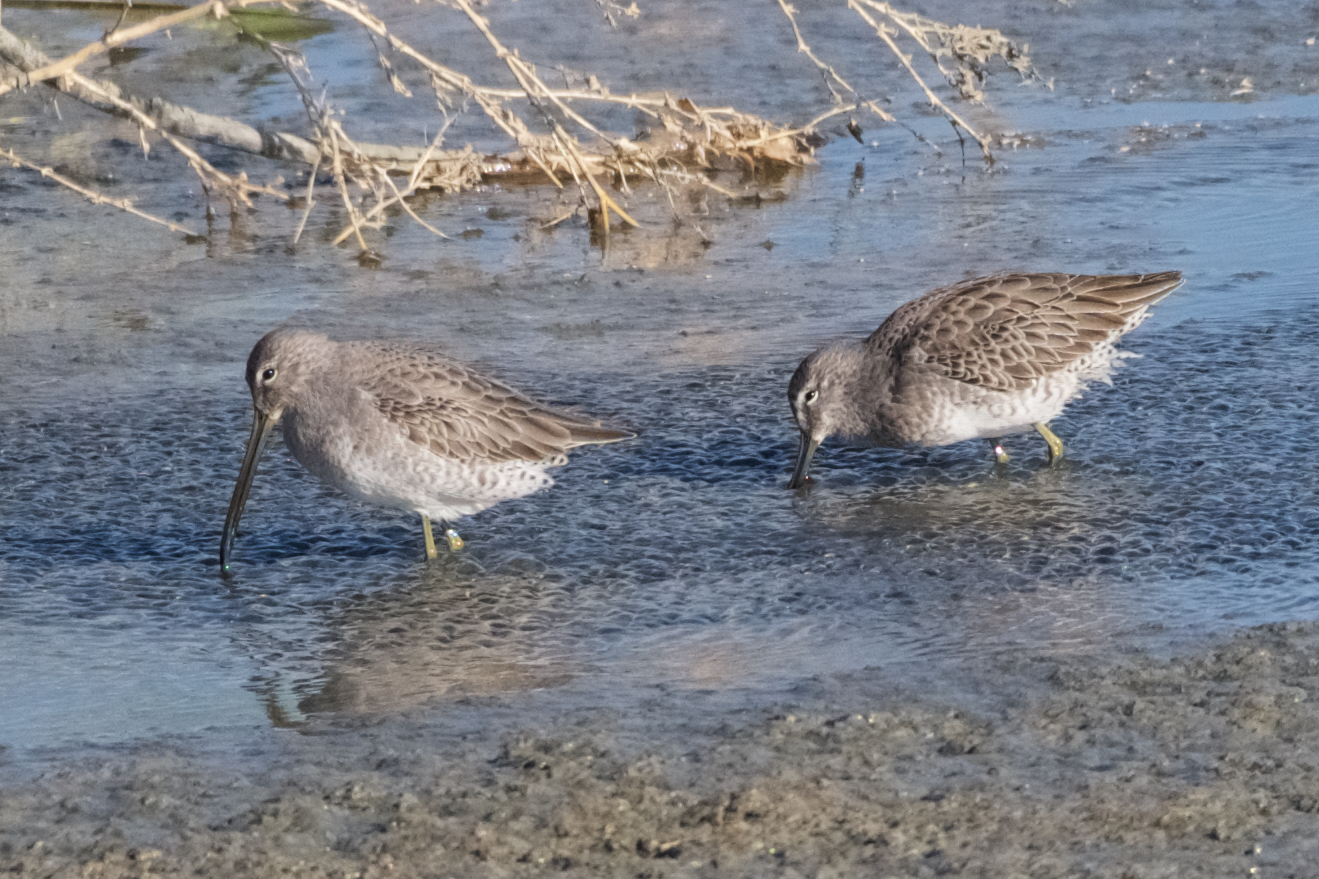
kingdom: Animalia
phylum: Chordata
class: Aves
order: Charadriiformes
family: Scolopacidae
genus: Limnodromus
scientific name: Limnodromus scolopaceus
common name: Long-billed dowitcher
